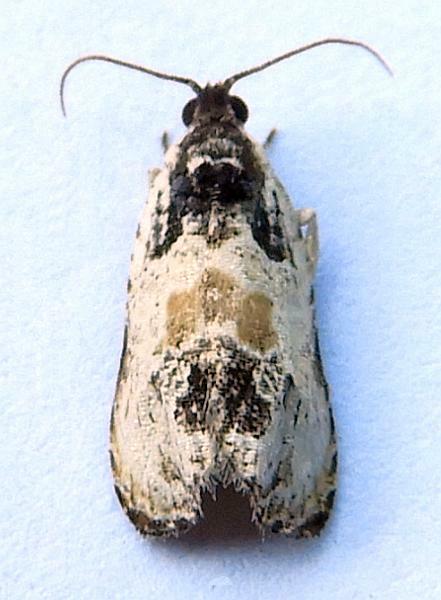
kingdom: Animalia
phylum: Arthropoda
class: Insecta
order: Lepidoptera
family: Tortricidae
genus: Olethreutes
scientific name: Olethreutes griseoalbana
